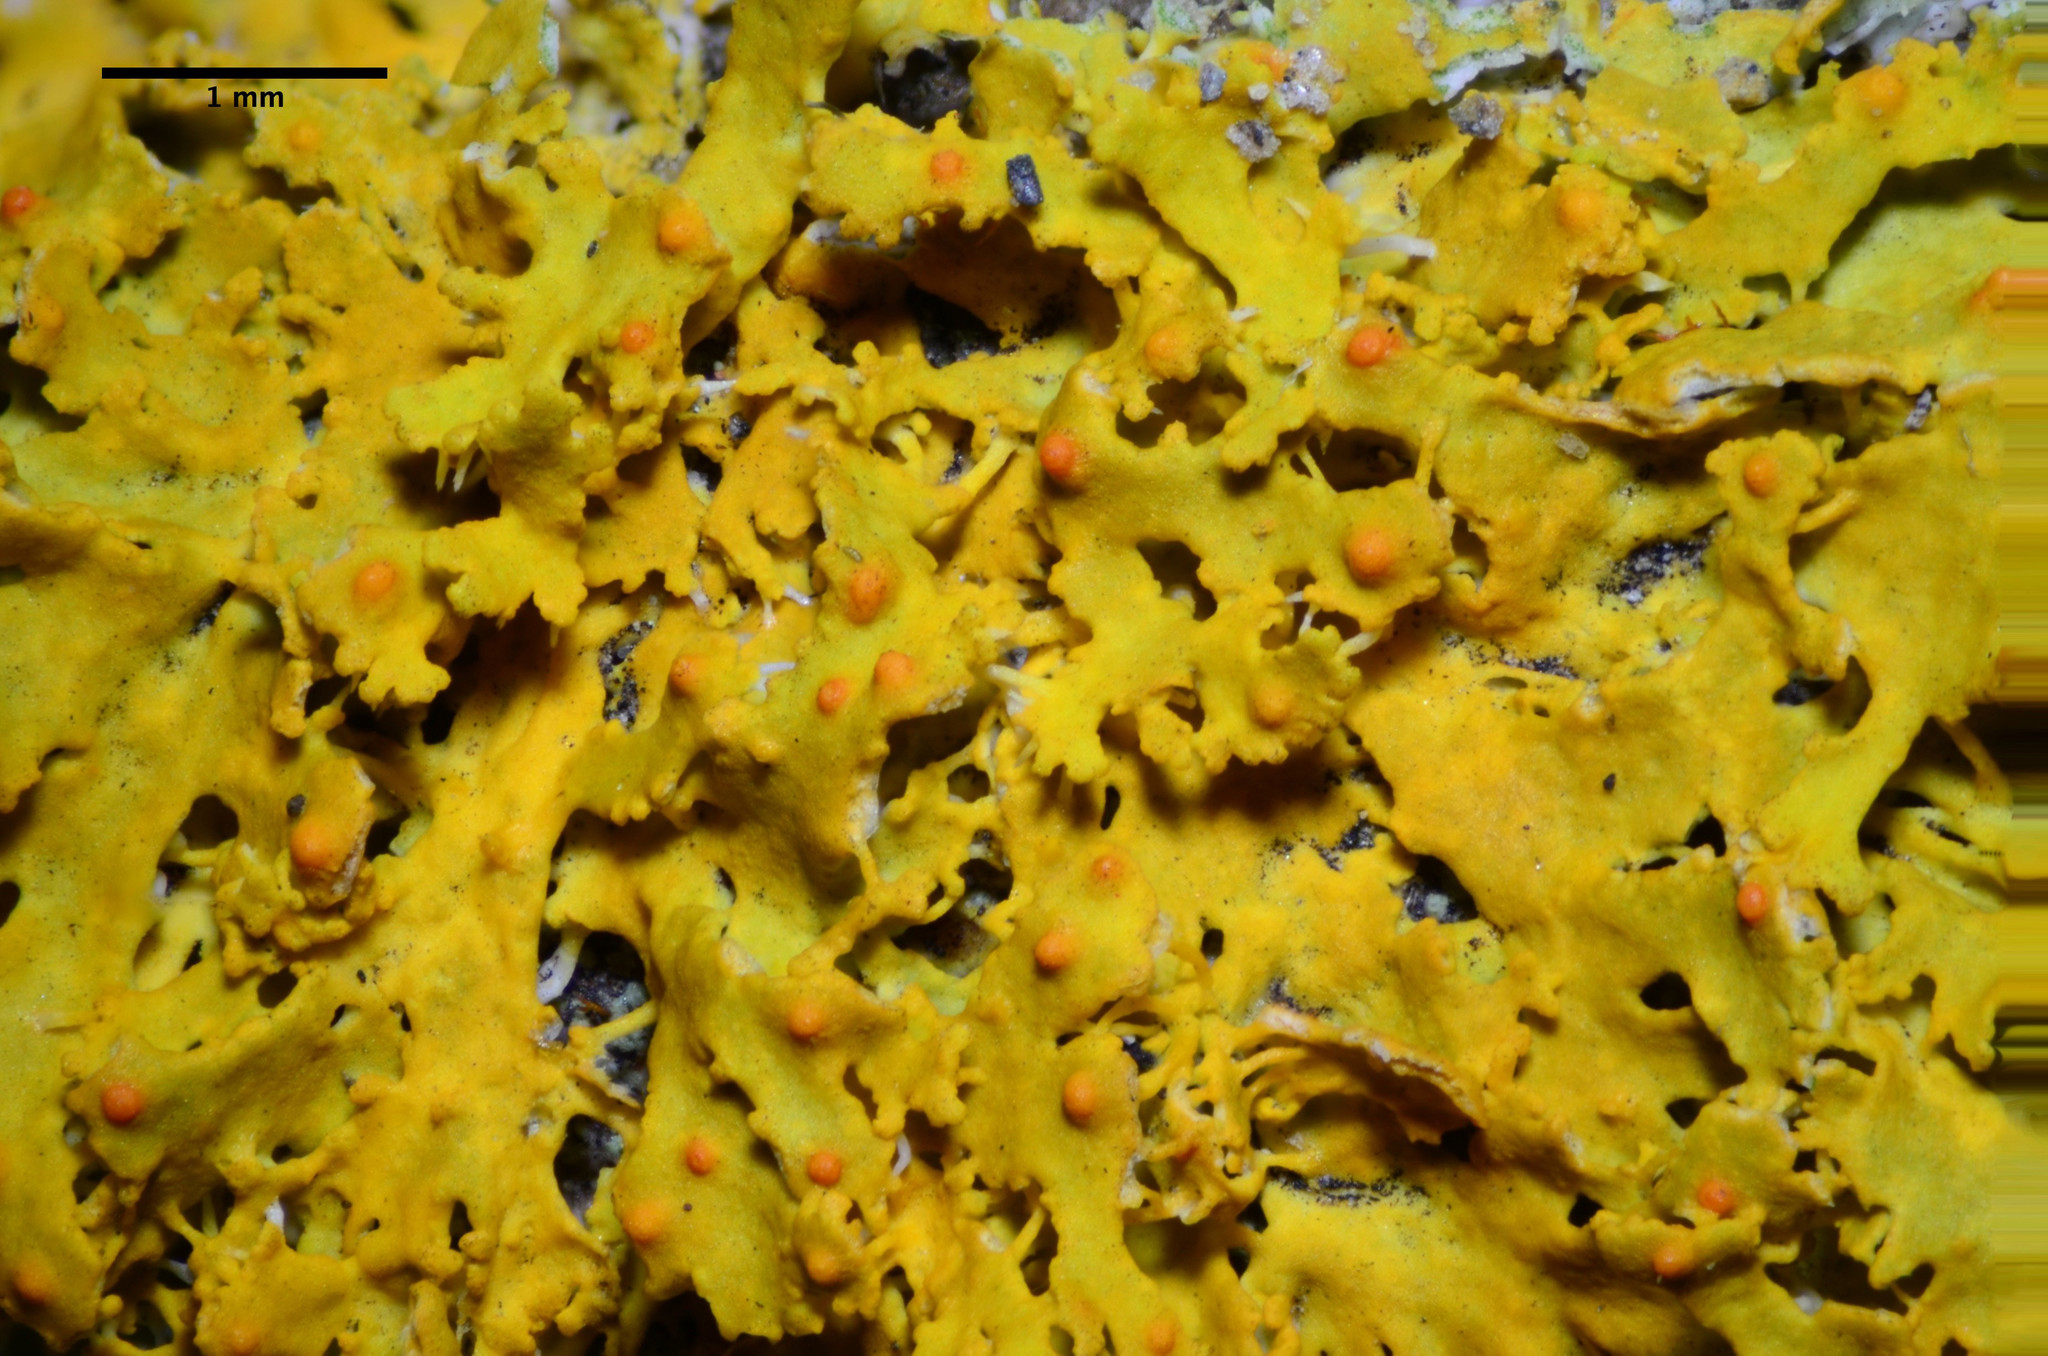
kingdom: Fungi
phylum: Ascomycota
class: Lecanoromycetes
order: Teloschistales
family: Teloschistaceae
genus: Gallowayella
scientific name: Gallowayella hasseana
